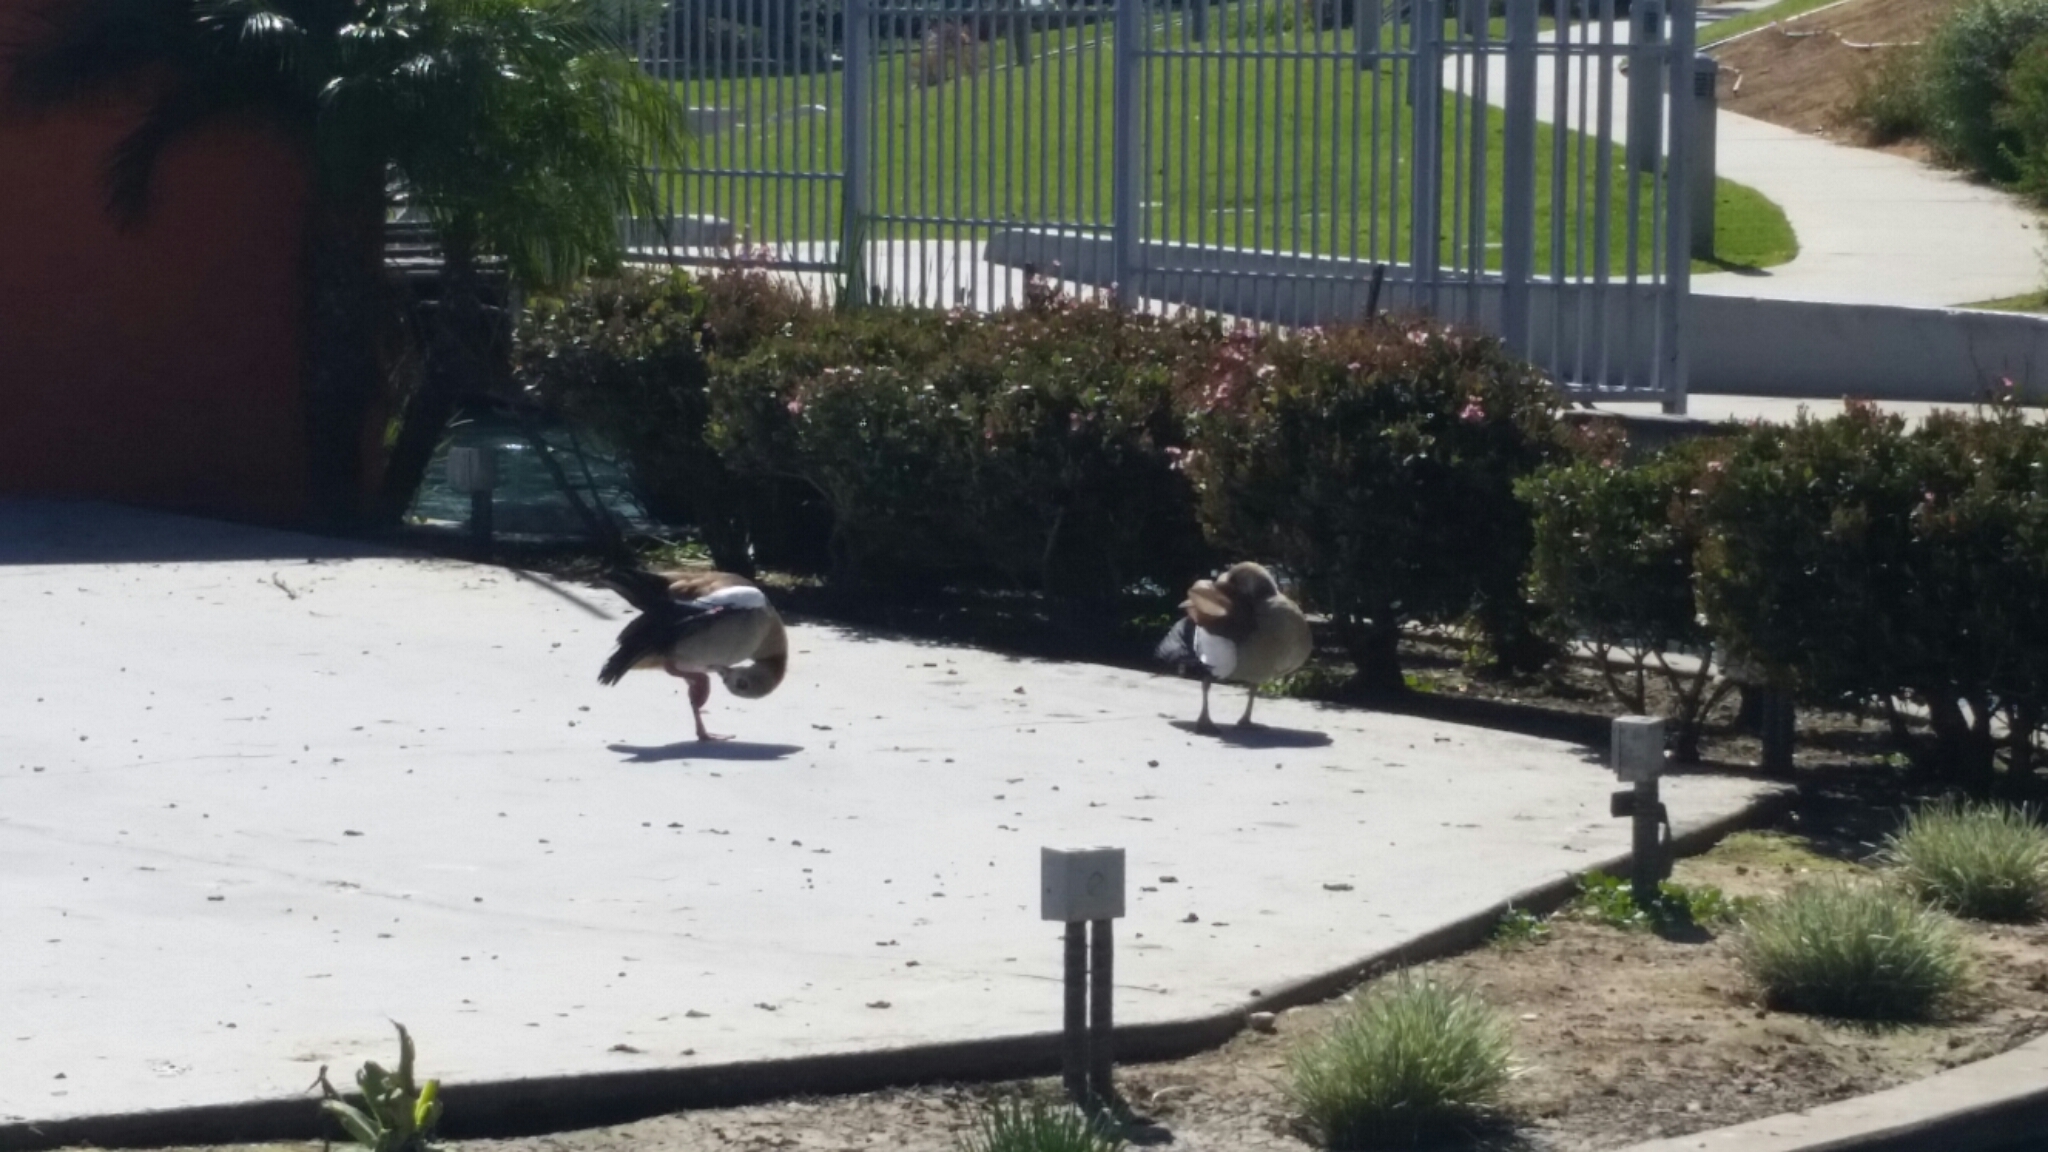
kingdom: Animalia
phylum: Chordata
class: Aves
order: Anseriformes
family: Anatidae
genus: Alopochen
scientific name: Alopochen aegyptiaca
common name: Egyptian goose
